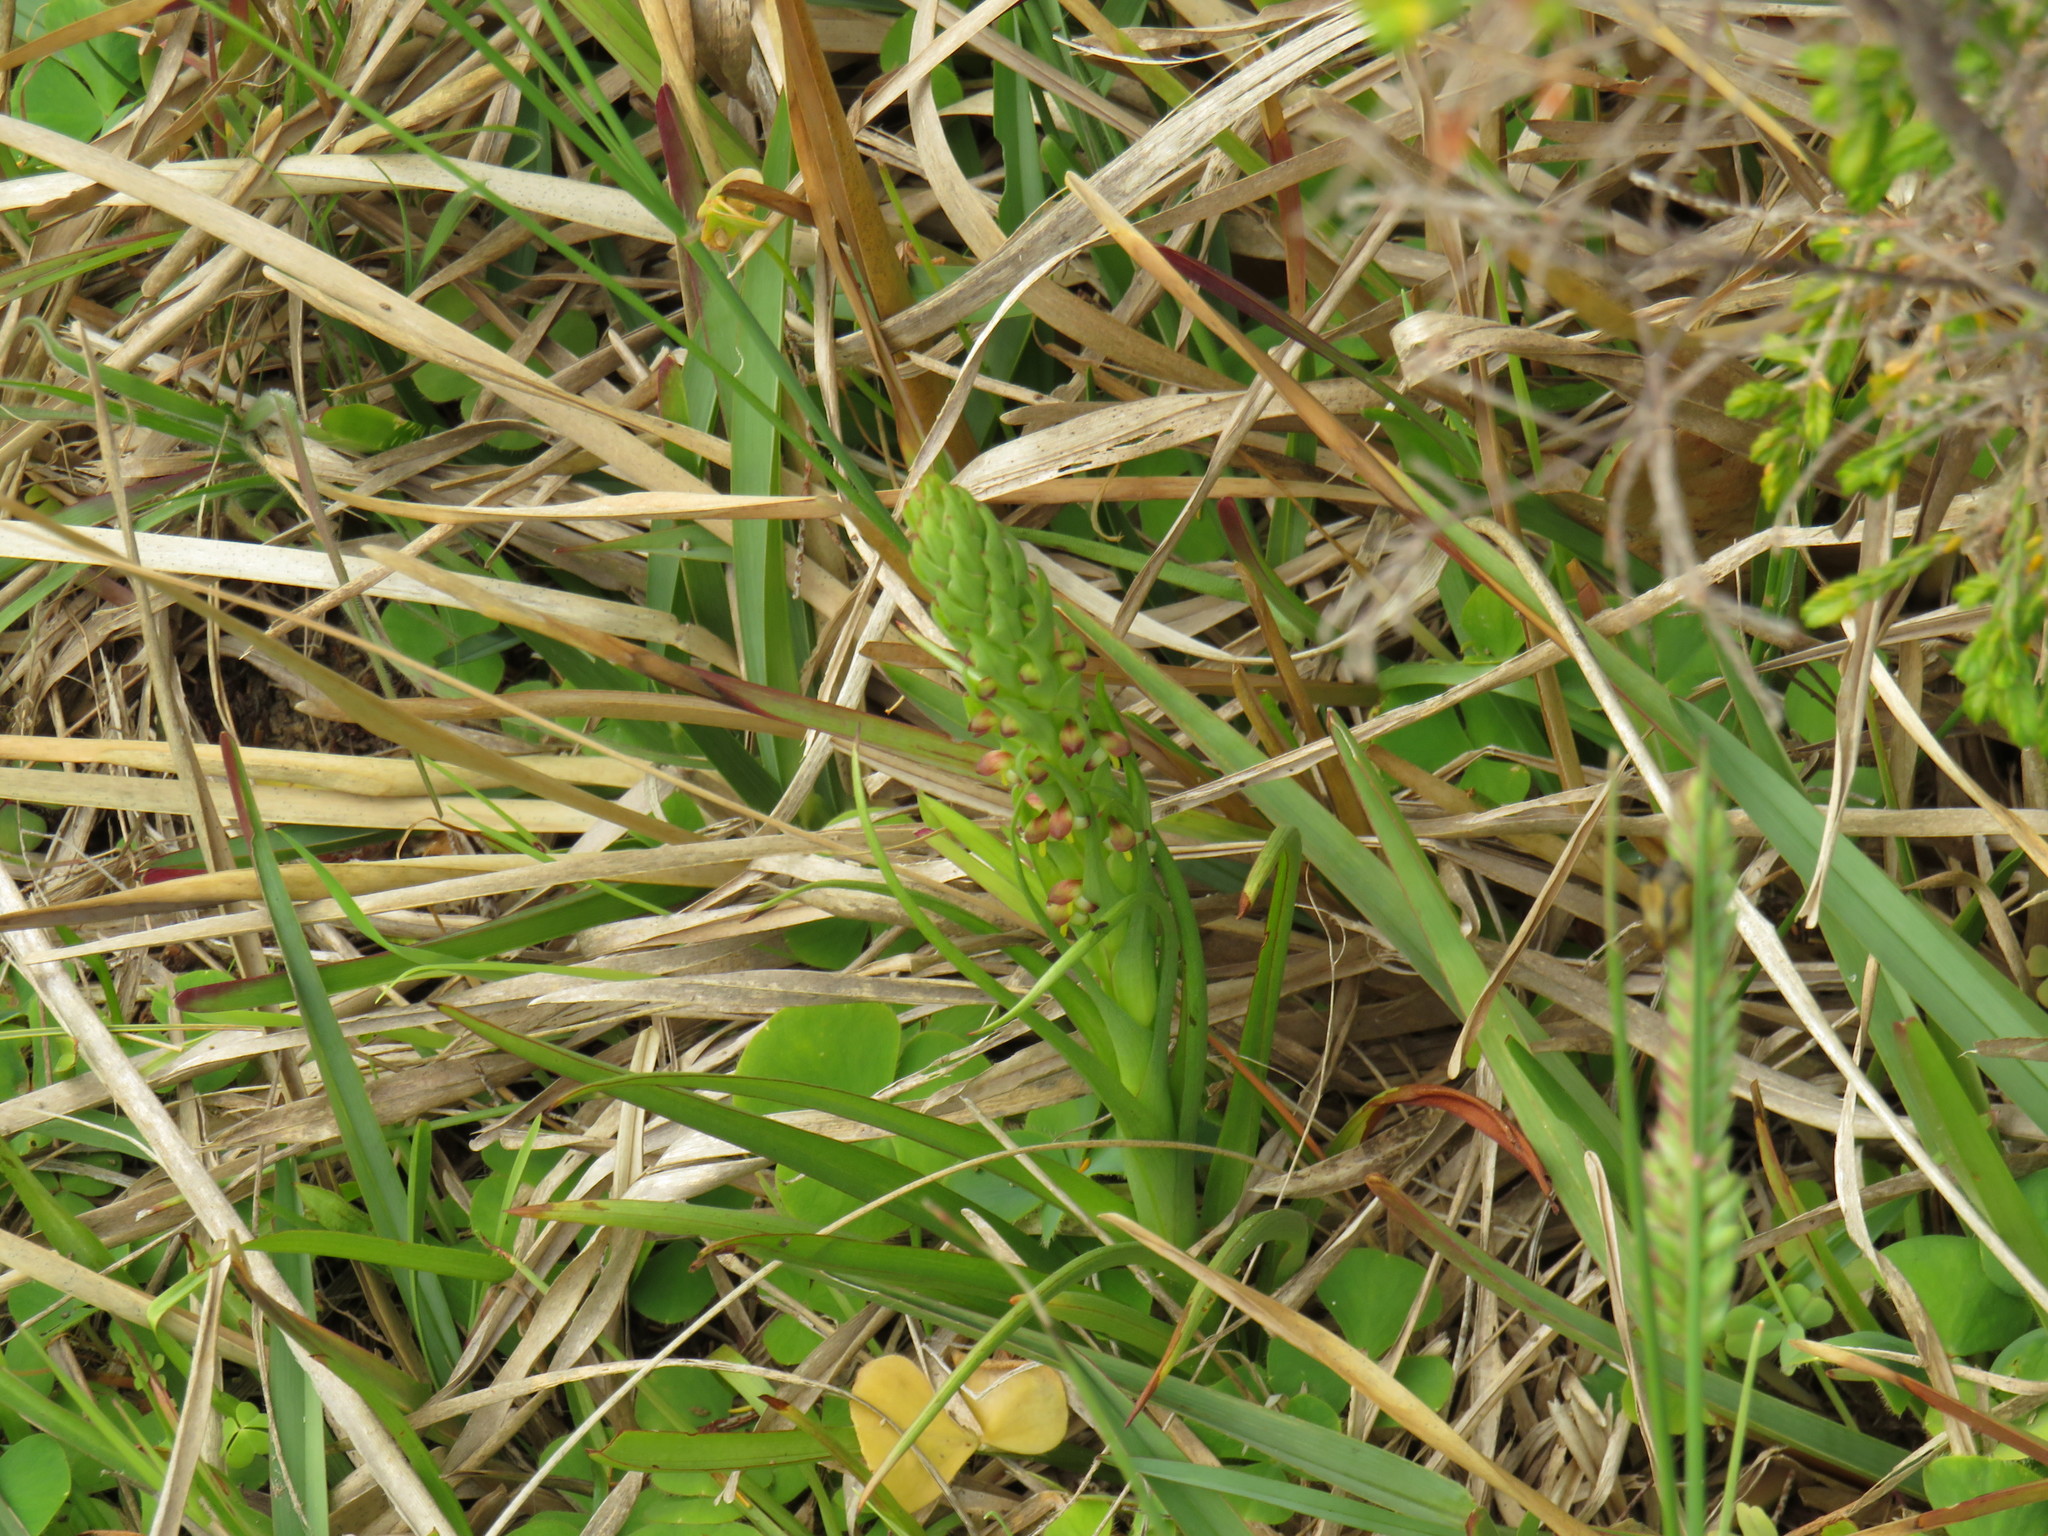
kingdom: Plantae
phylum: Tracheophyta
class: Liliopsida
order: Asparagales
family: Orchidaceae
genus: Disa
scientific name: Disa bracteata
